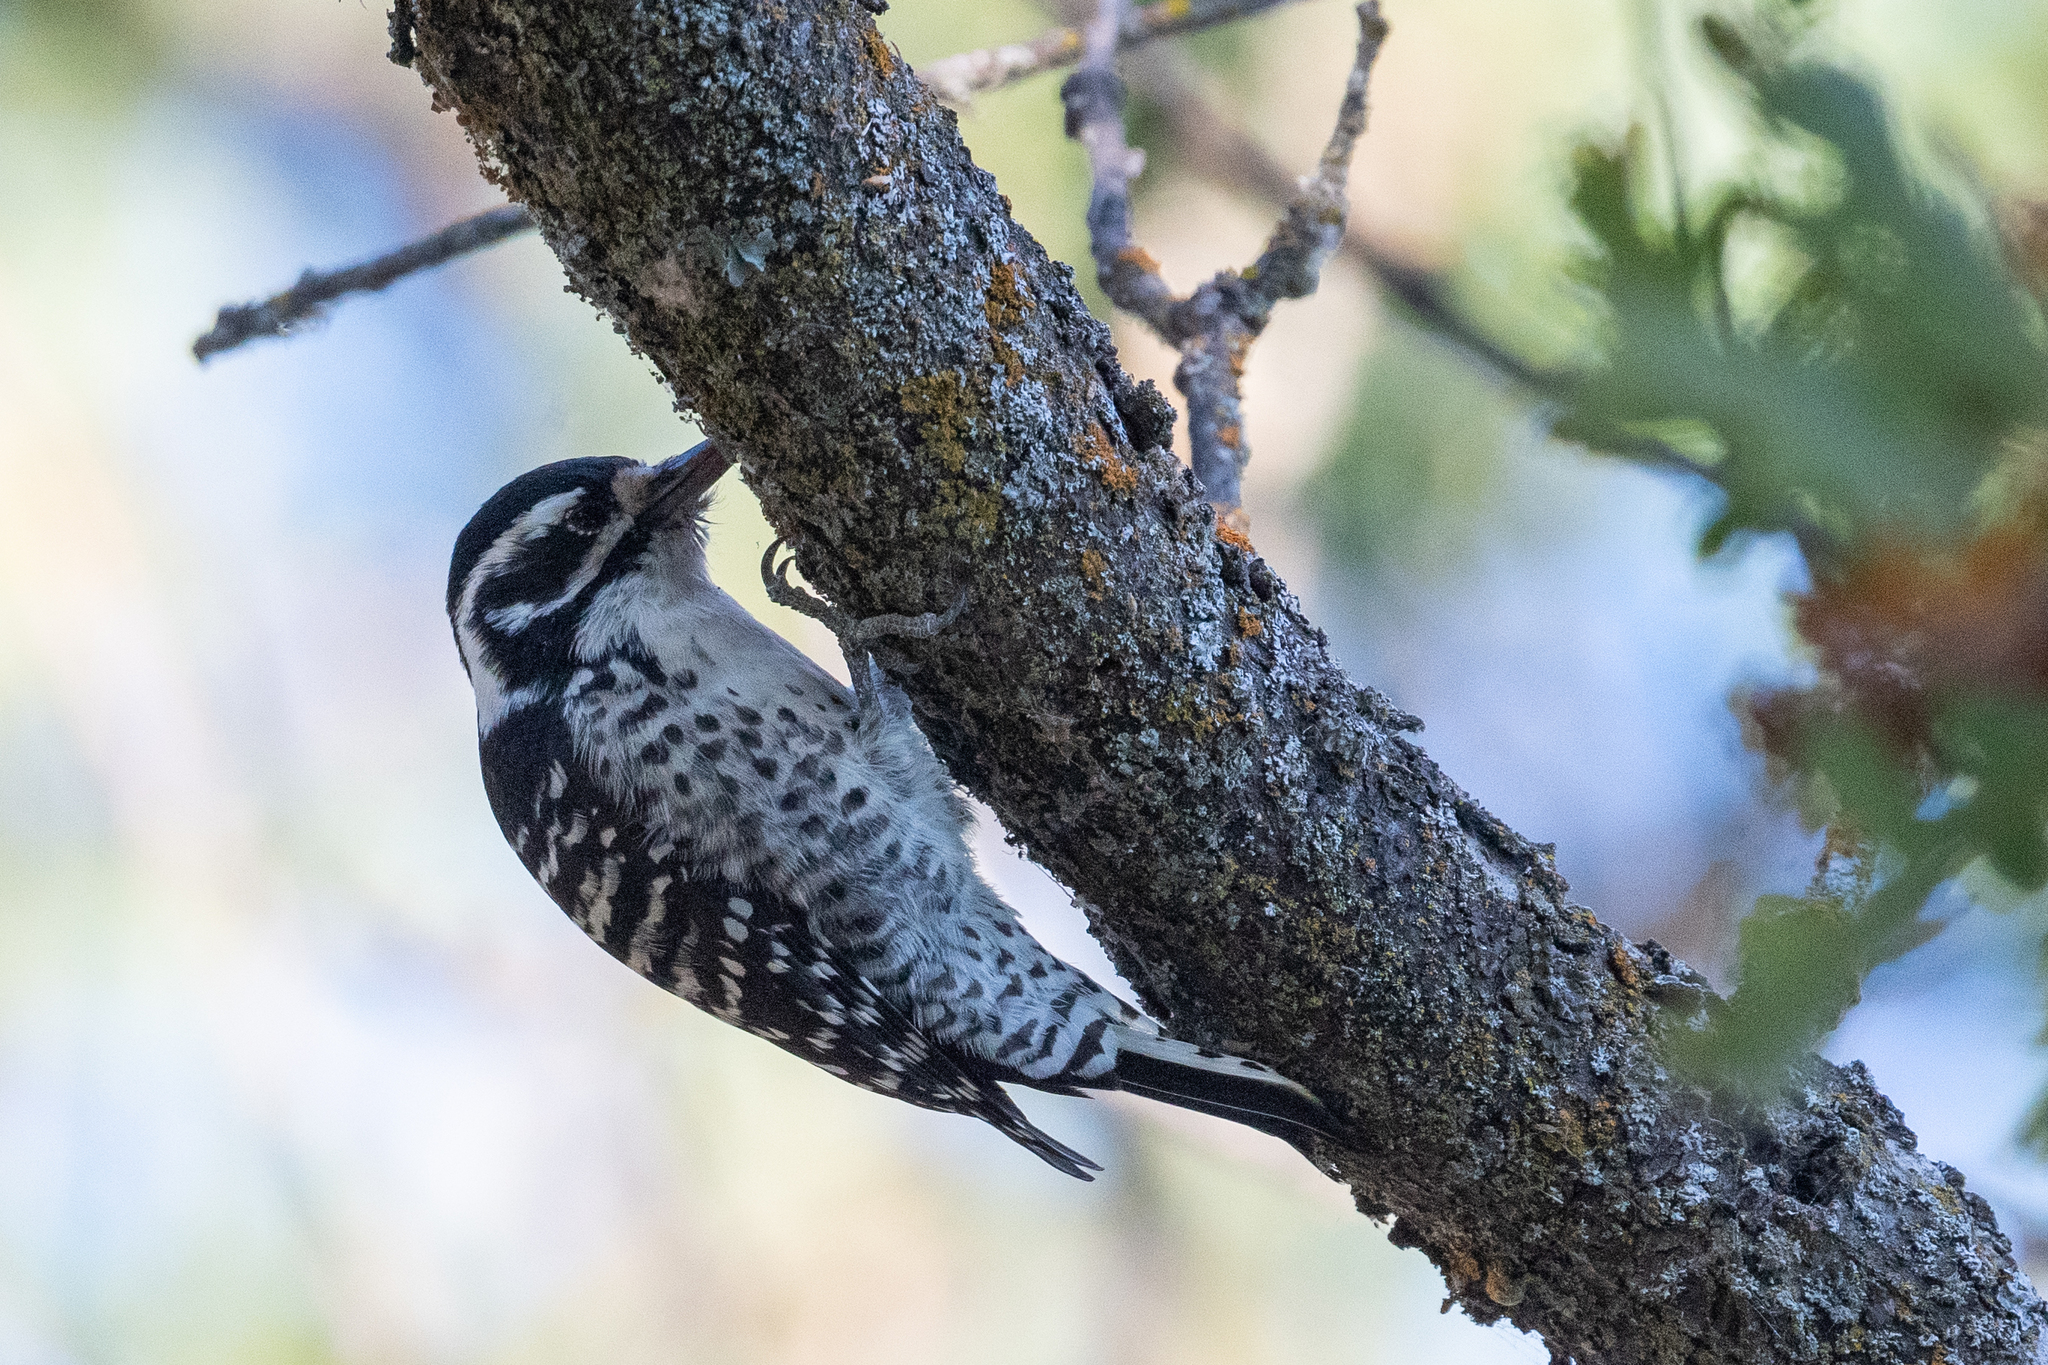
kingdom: Animalia
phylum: Chordata
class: Aves
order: Piciformes
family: Picidae
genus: Dryobates
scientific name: Dryobates nuttallii
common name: Nuttall's woodpecker
